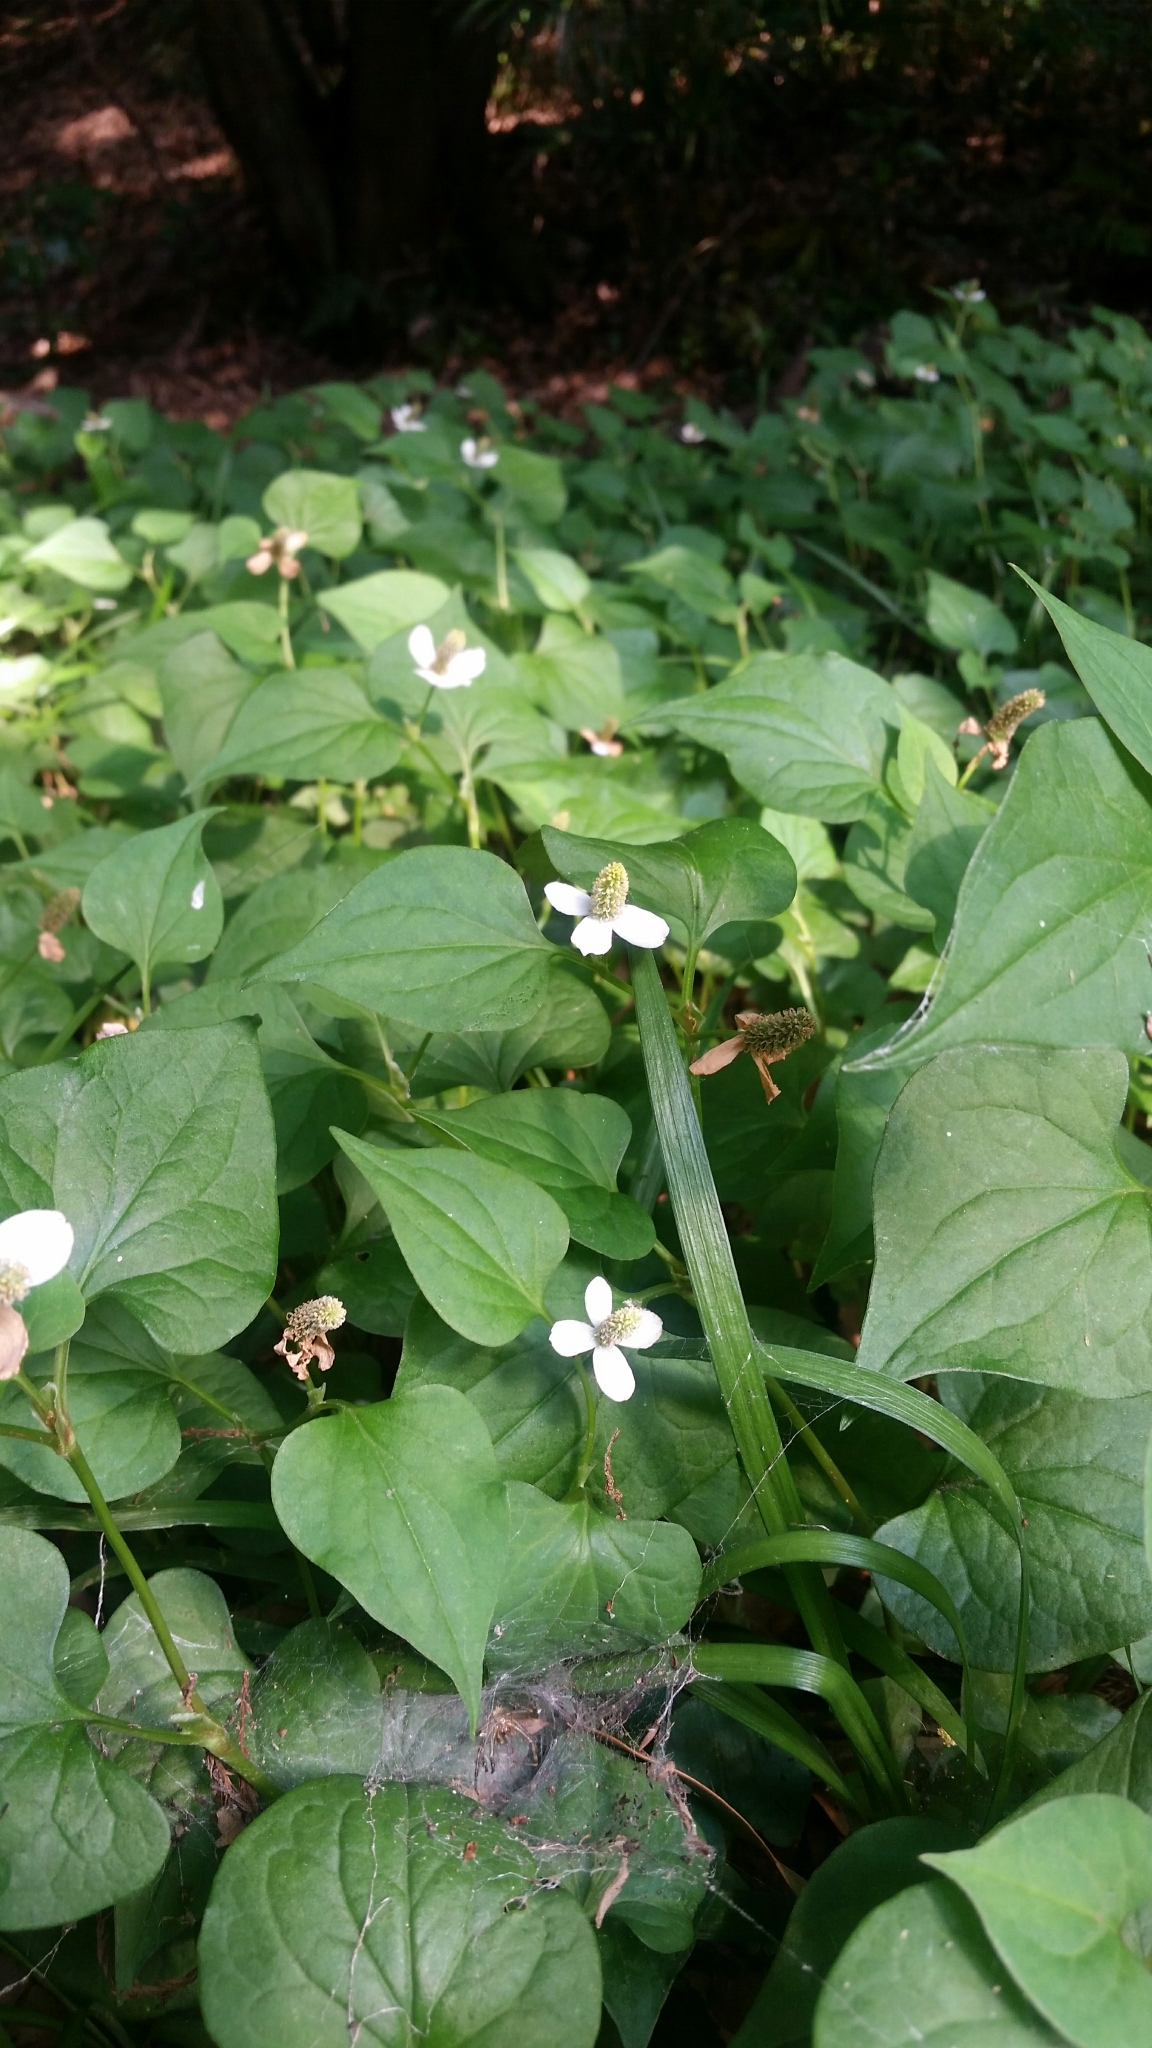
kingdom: Plantae
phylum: Tracheophyta
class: Magnoliopsida
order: Piperales
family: Saururaceae
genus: Houttuynia
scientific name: Houttuynia cordata
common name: Chameleon
